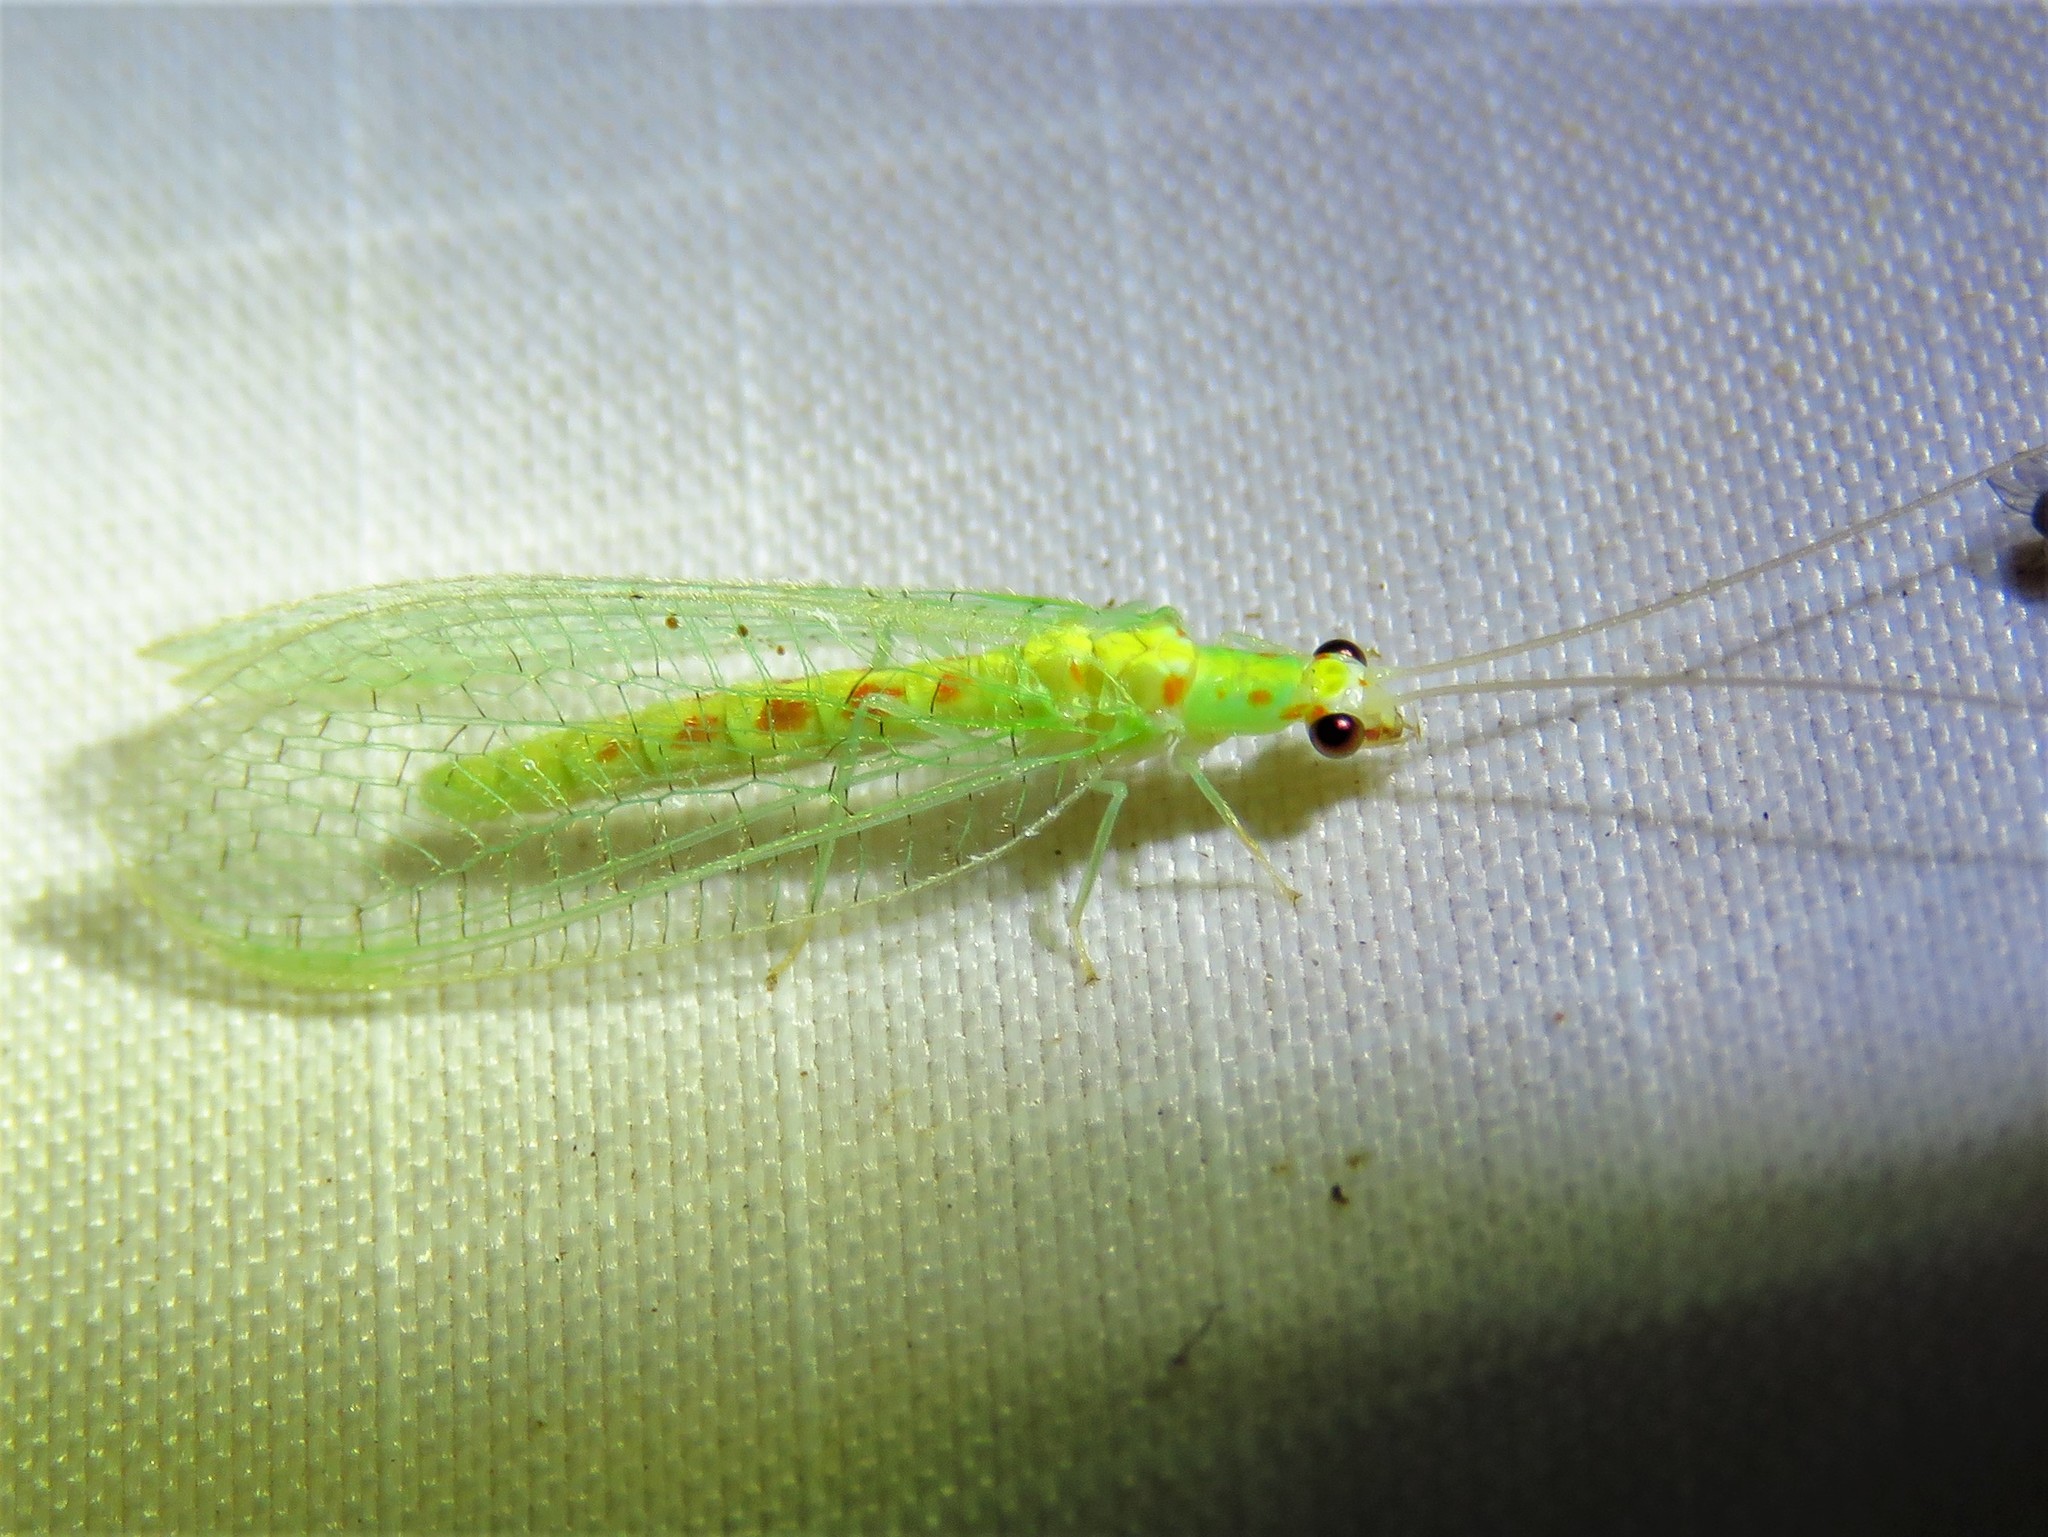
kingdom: Animalia
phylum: Arthropoda
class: Insecta
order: Neuroptera
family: Chrysopidae
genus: Chrysopa
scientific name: Chrysopa quadripunctata
